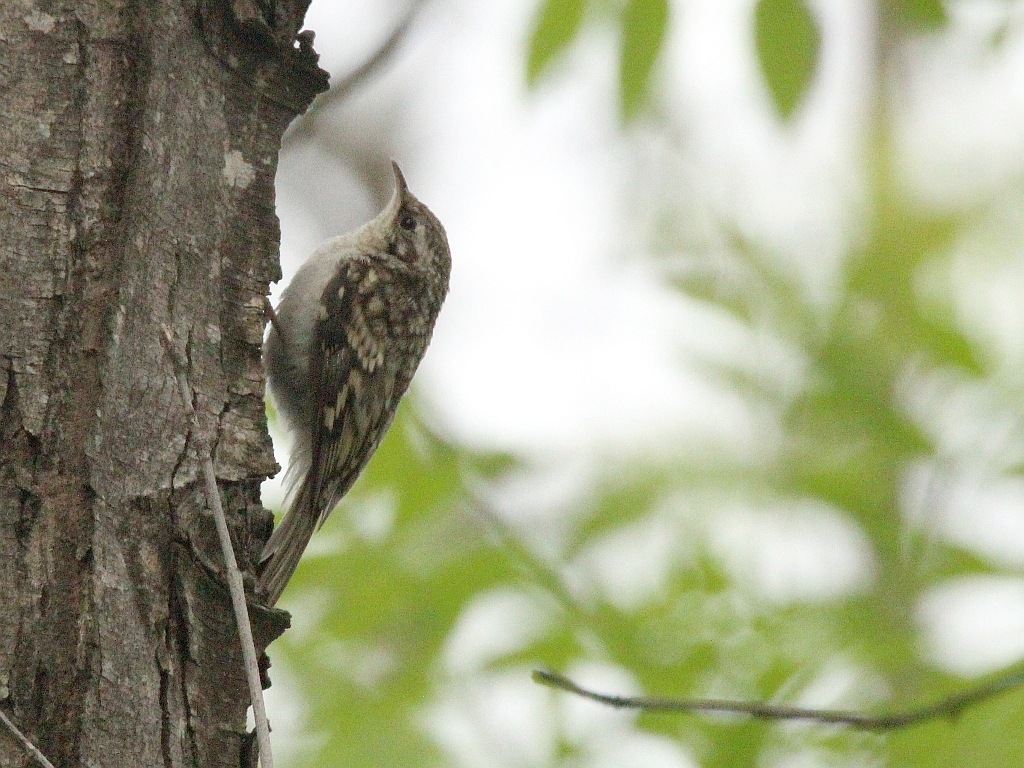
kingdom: Animalia
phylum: Chordata
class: Aves
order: Passeriformes
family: Certhiidae
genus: Certhia
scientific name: Certhia familiaris
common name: Eurasian treecreeper
